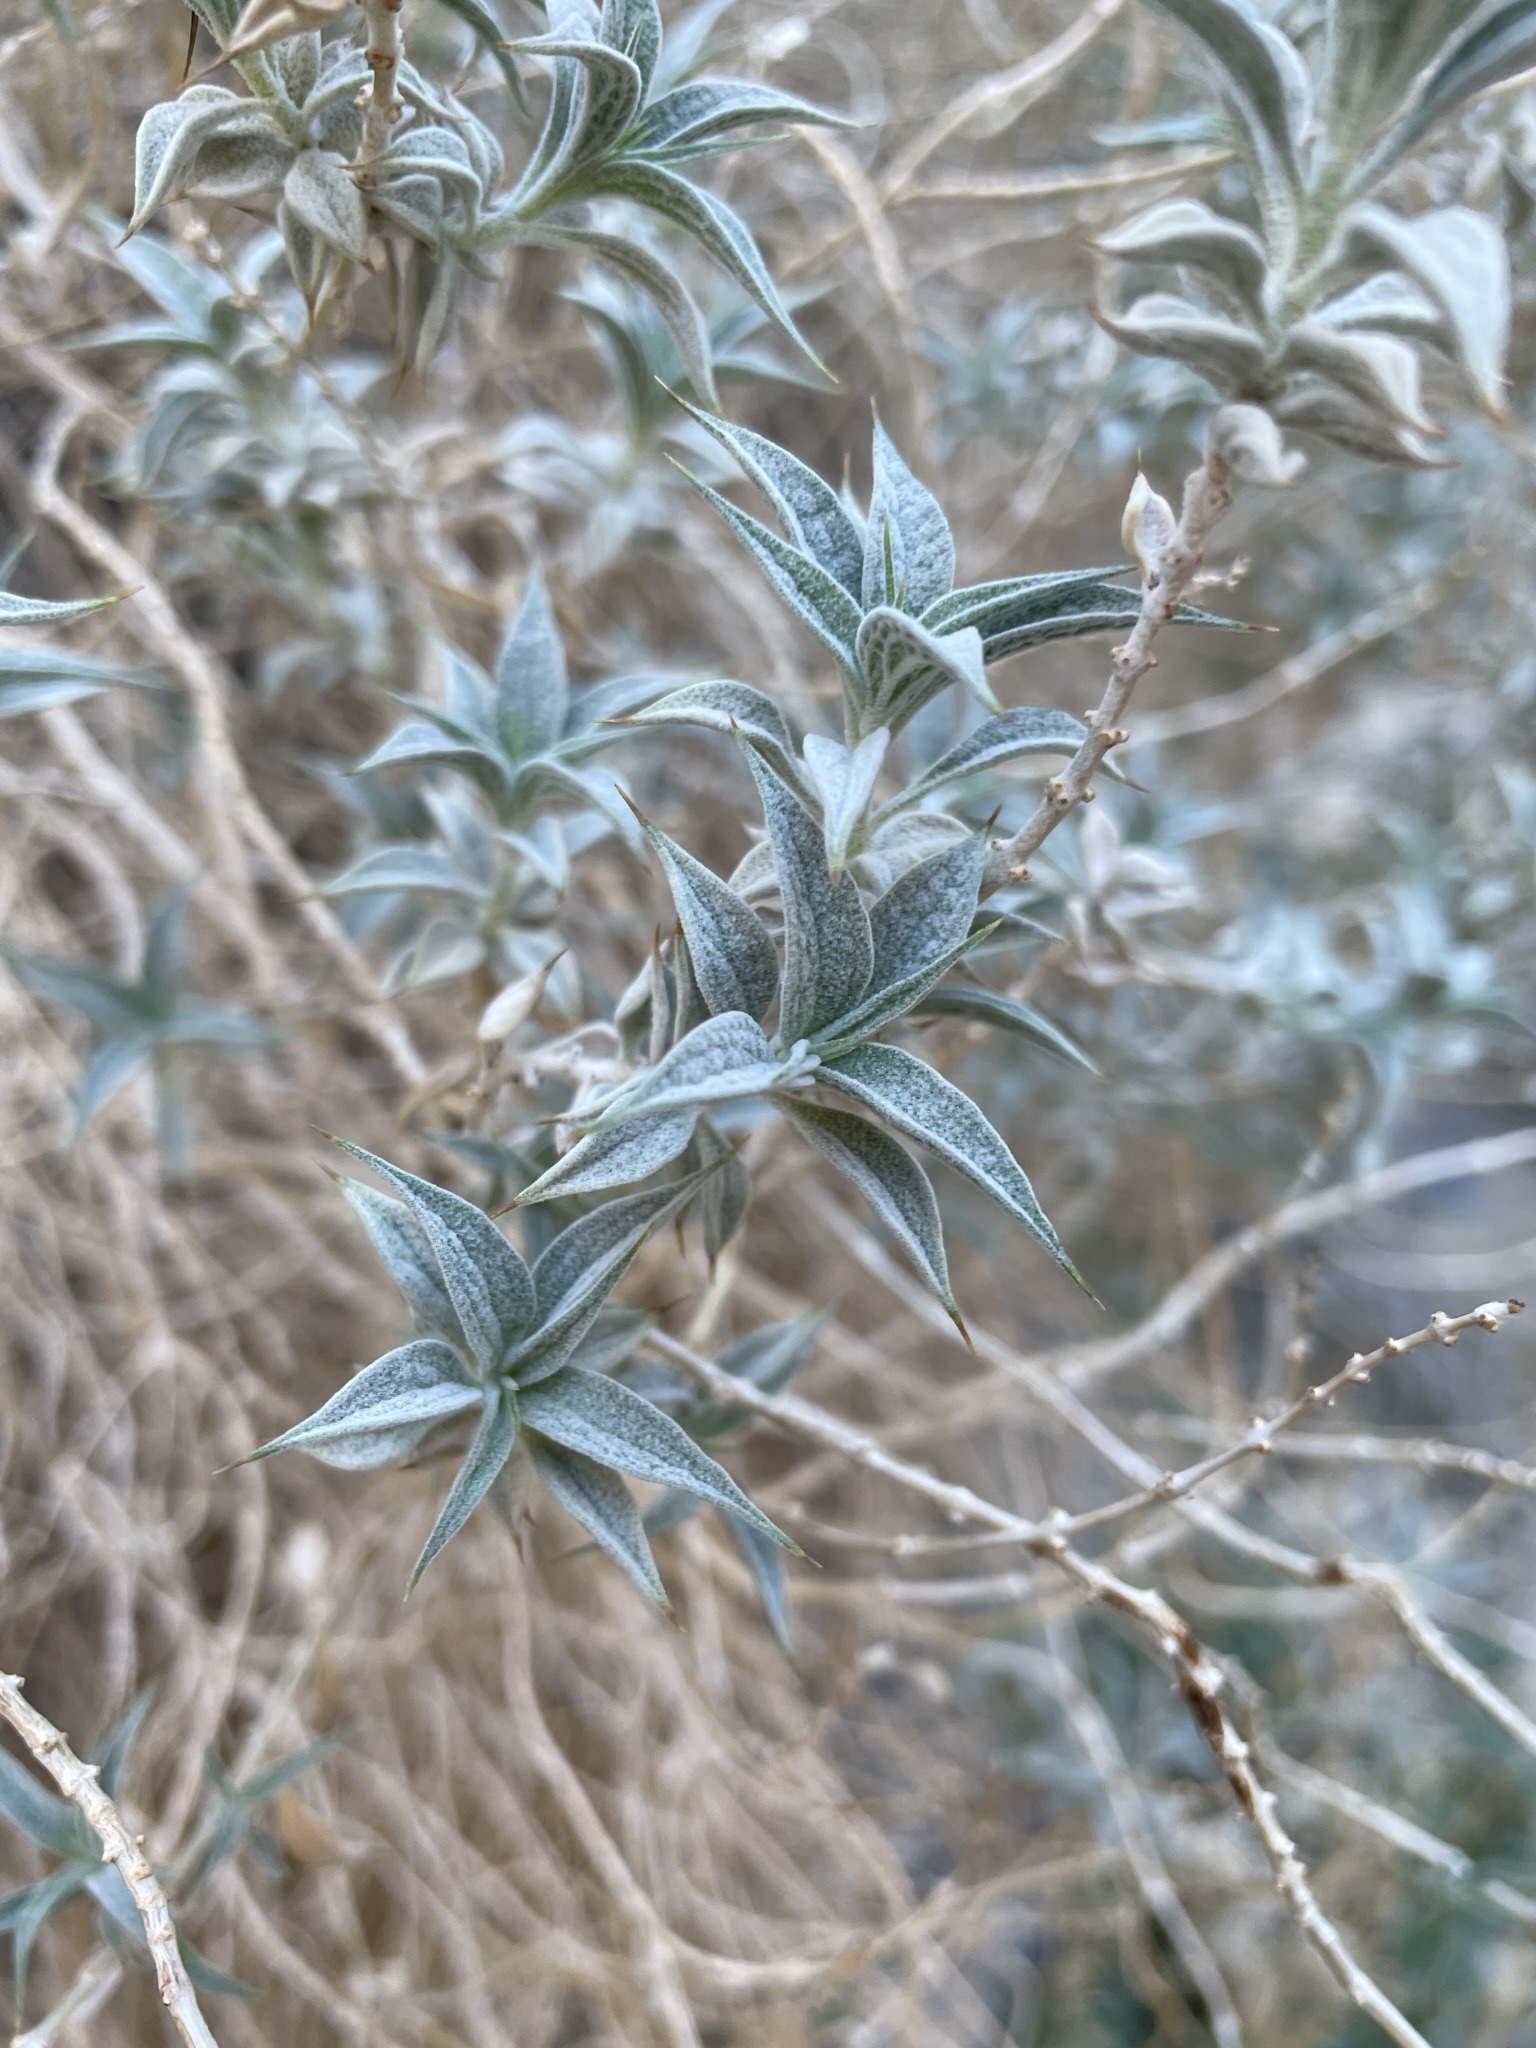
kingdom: Plantae
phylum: Tracheophyta
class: Magnoliopsida
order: Lamiales
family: Lamiaceae
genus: Salvia
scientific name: Salvia funerea
